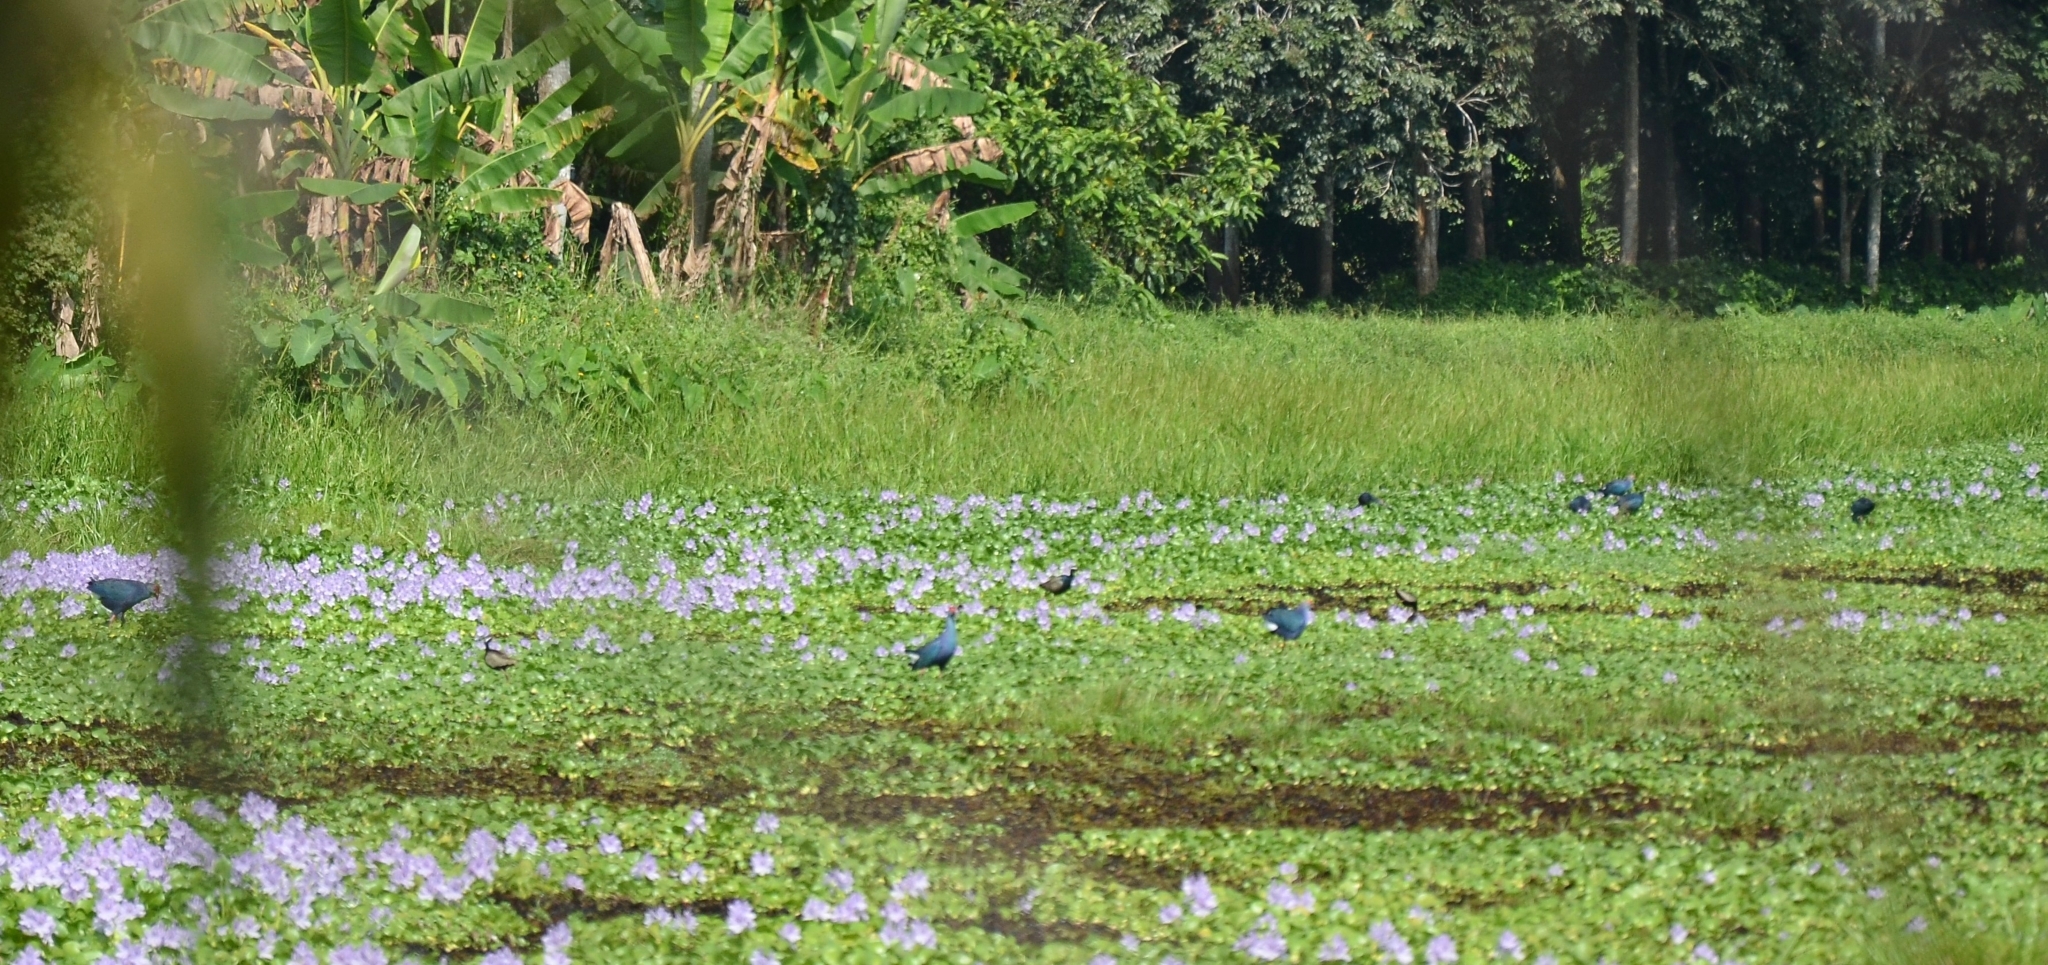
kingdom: Animalia
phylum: Chordata
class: Aves
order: Gruiformes
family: Rallidae
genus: Porphyrio
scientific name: Porphyrio porphyrio
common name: Purple swamphen
